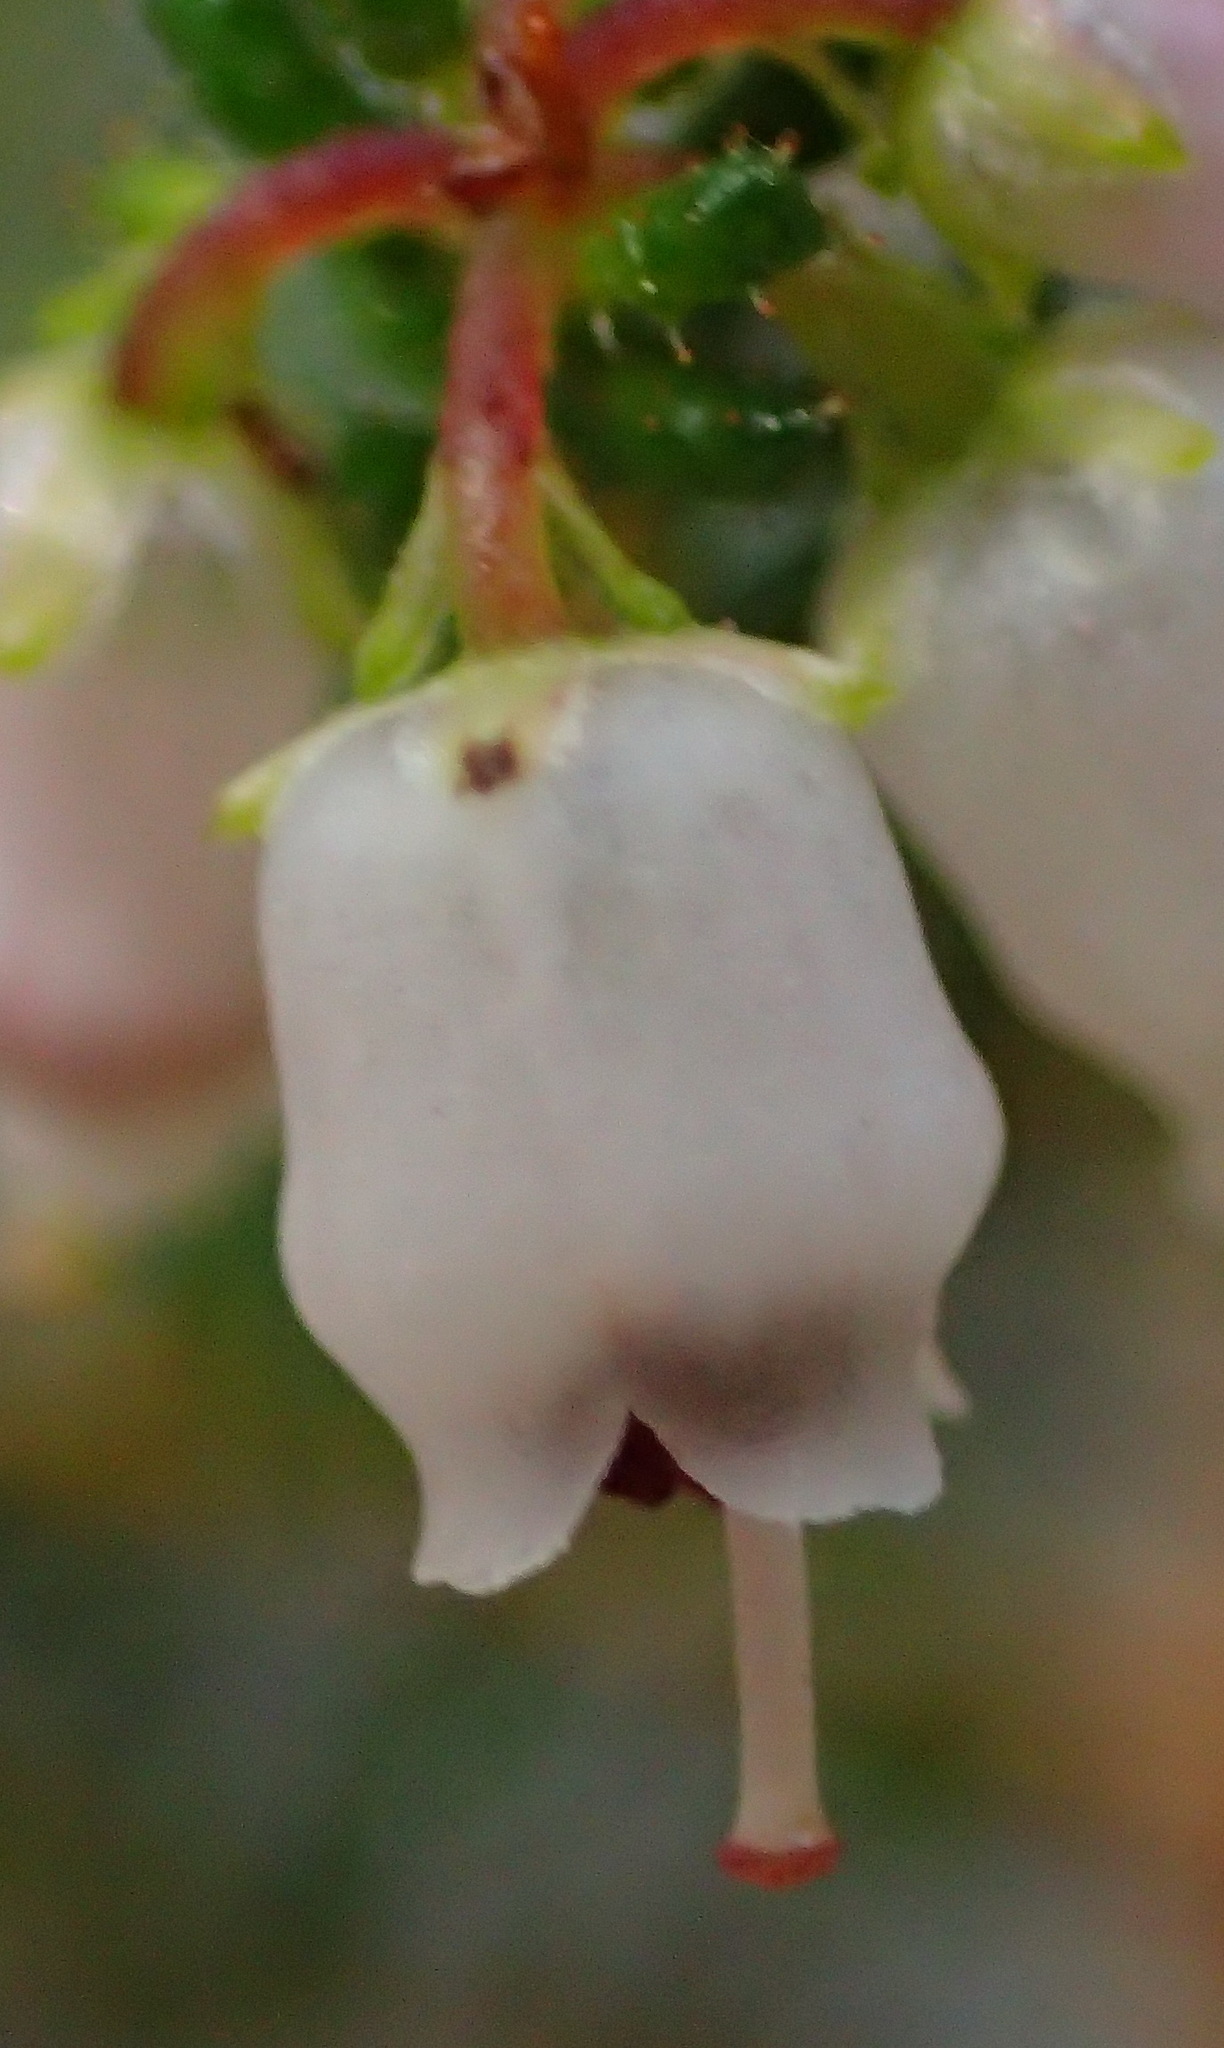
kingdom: Plantae
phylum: Tracheophyta
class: Magnoliopsida
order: Ericales
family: Ericaceae
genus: Erica
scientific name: Erica scabriuscula
